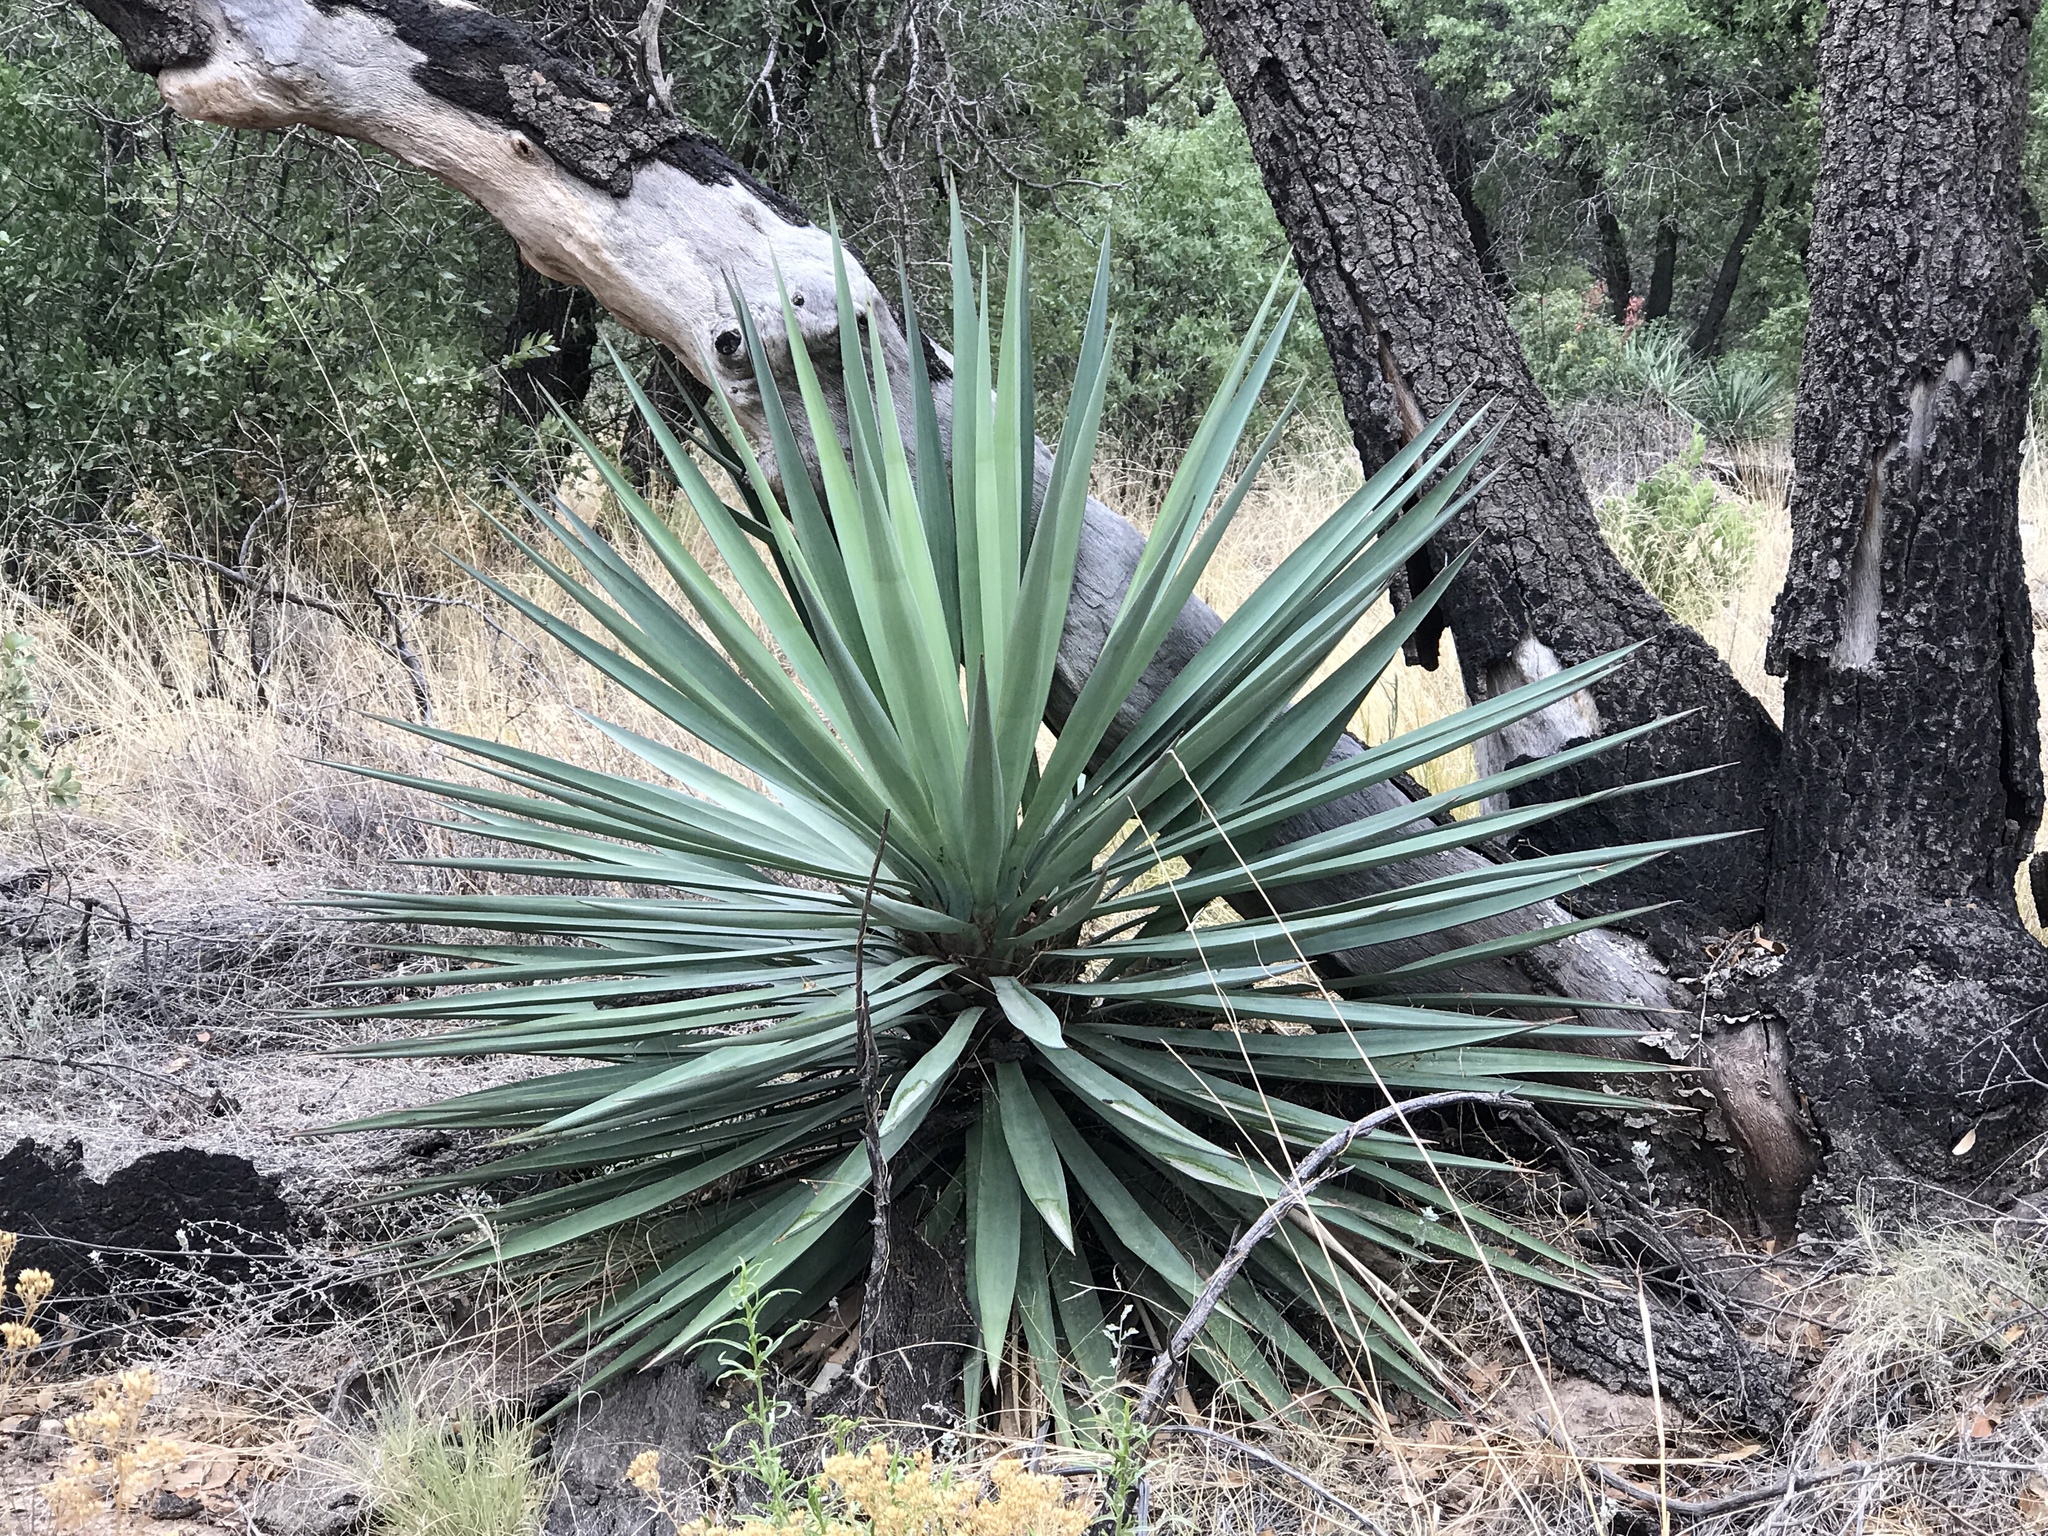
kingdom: Plantae
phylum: Tracheophyta
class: Liliopsida
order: Asparagales
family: Asparagaceae
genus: Yucca
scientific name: Yucca madrensis
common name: Hoary yucca
